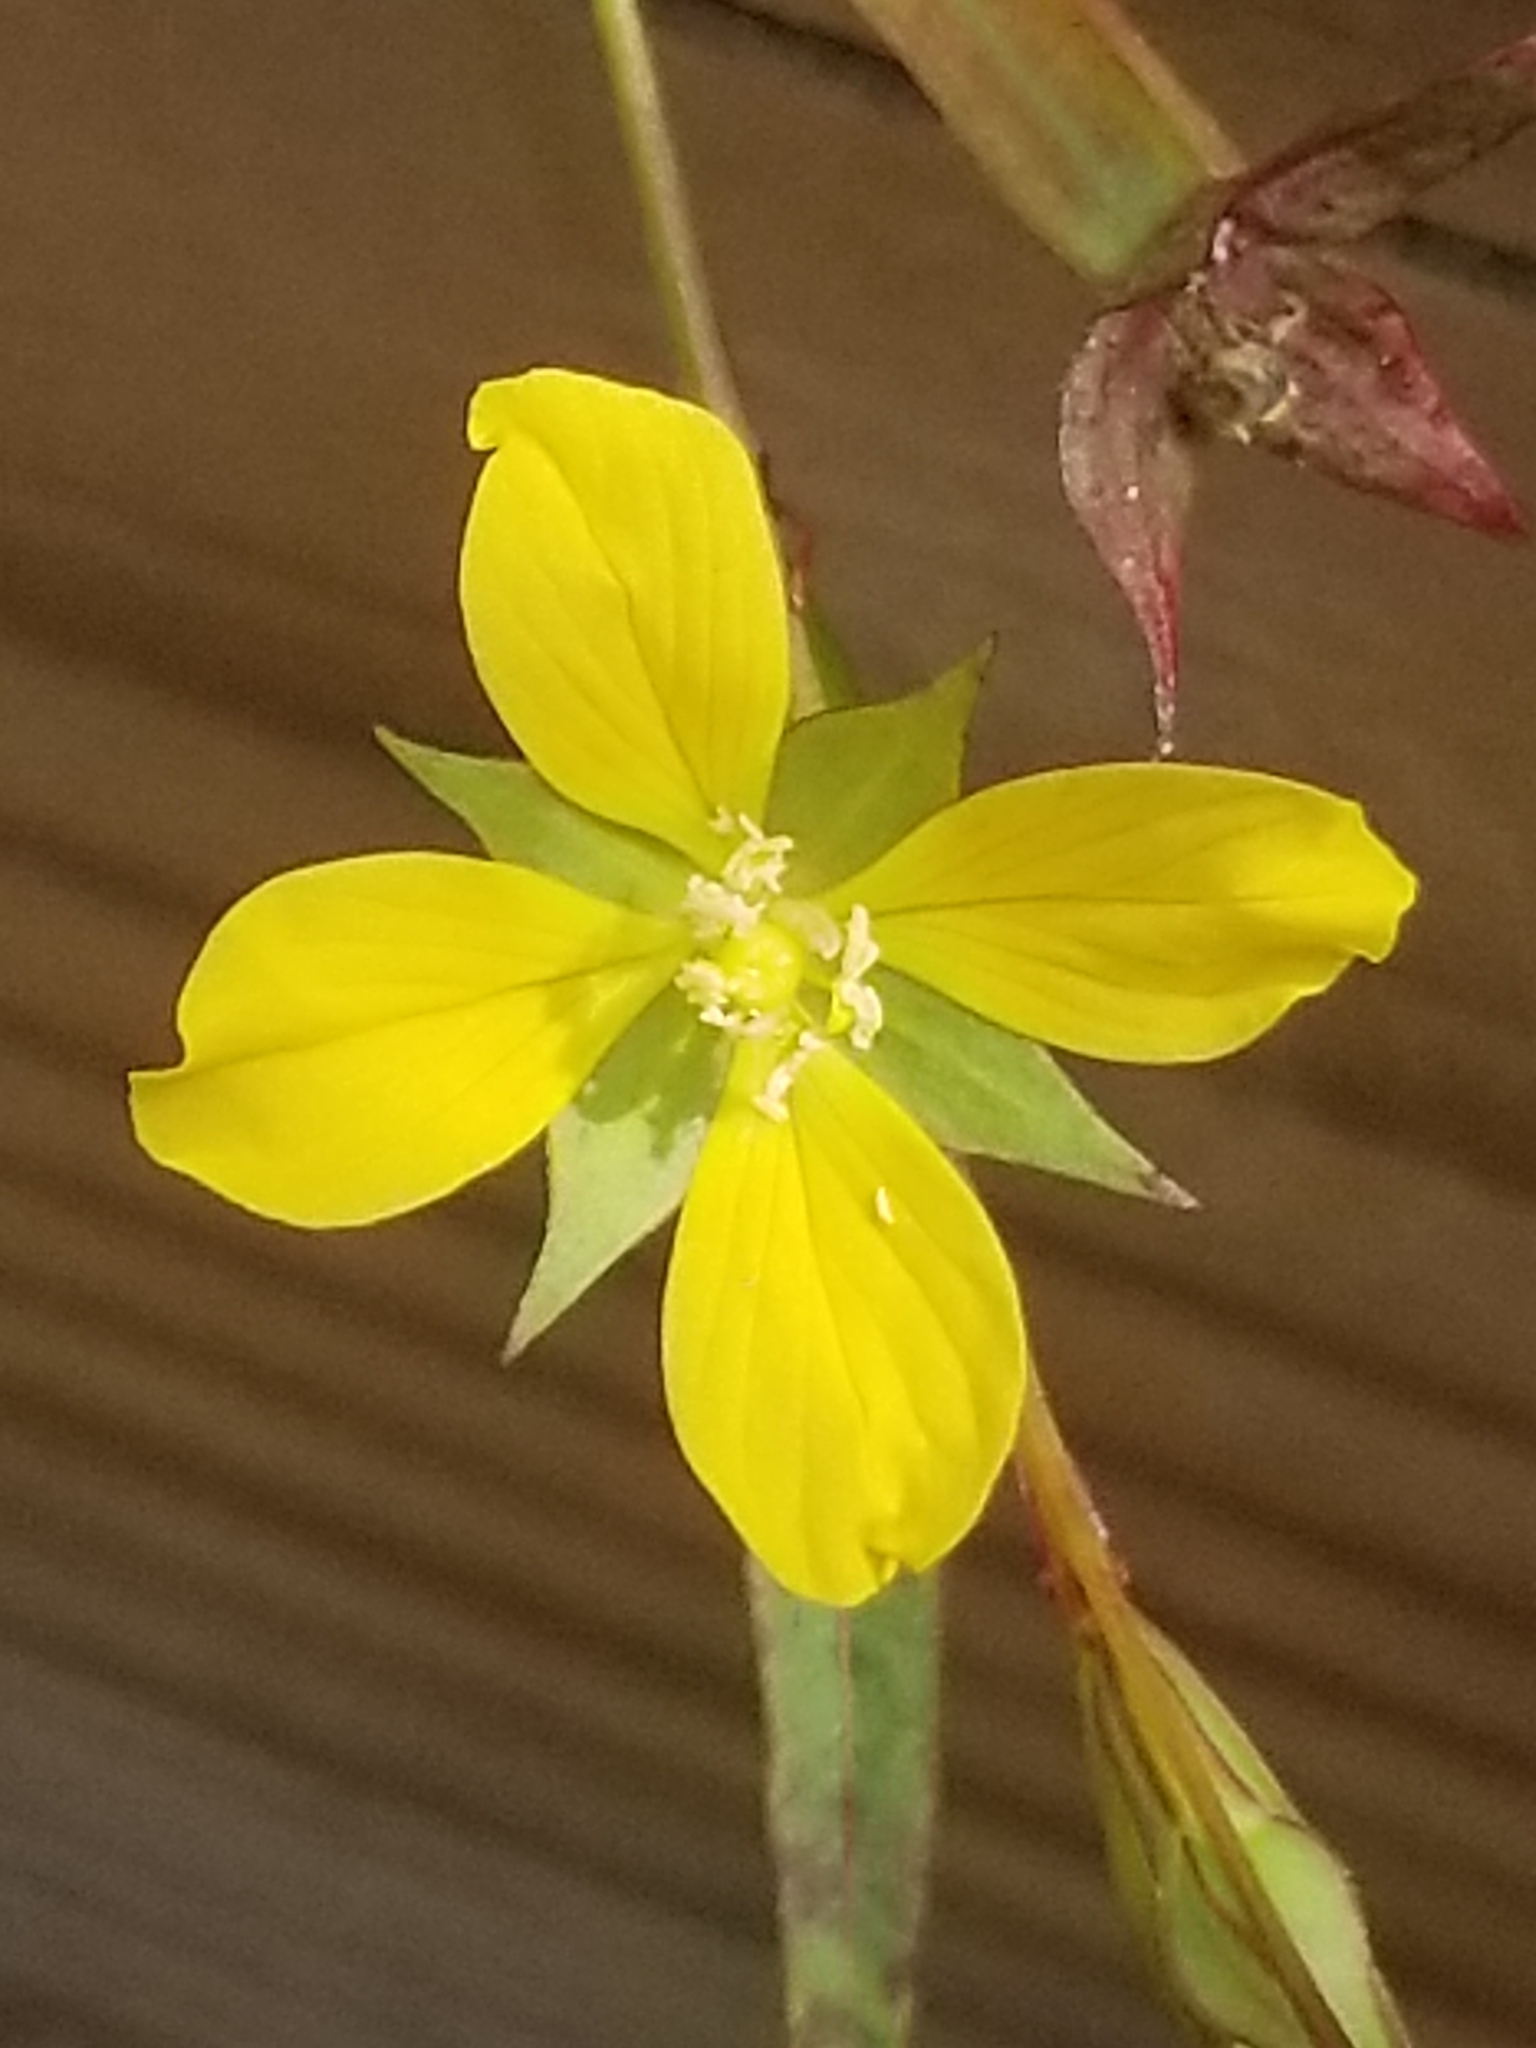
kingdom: Plantae
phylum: Tracheophyta
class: Magnoliopsida
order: Myrtales
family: Onagraceae
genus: Ludwigia
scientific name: Ludwigia decurrens
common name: Winged water-primrose
